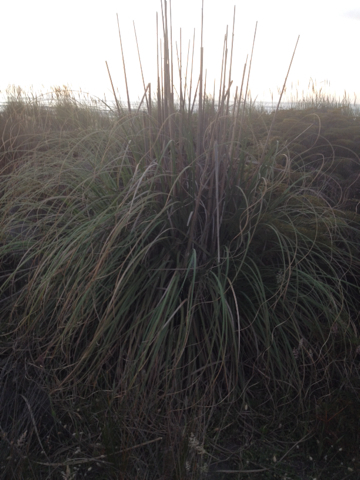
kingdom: Plantae
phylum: Tracheophyta
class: Liliopsida
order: Poales
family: Poaceae
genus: Cortaderia
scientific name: Cortaderia selloana
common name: Uruguayan pampas grass
